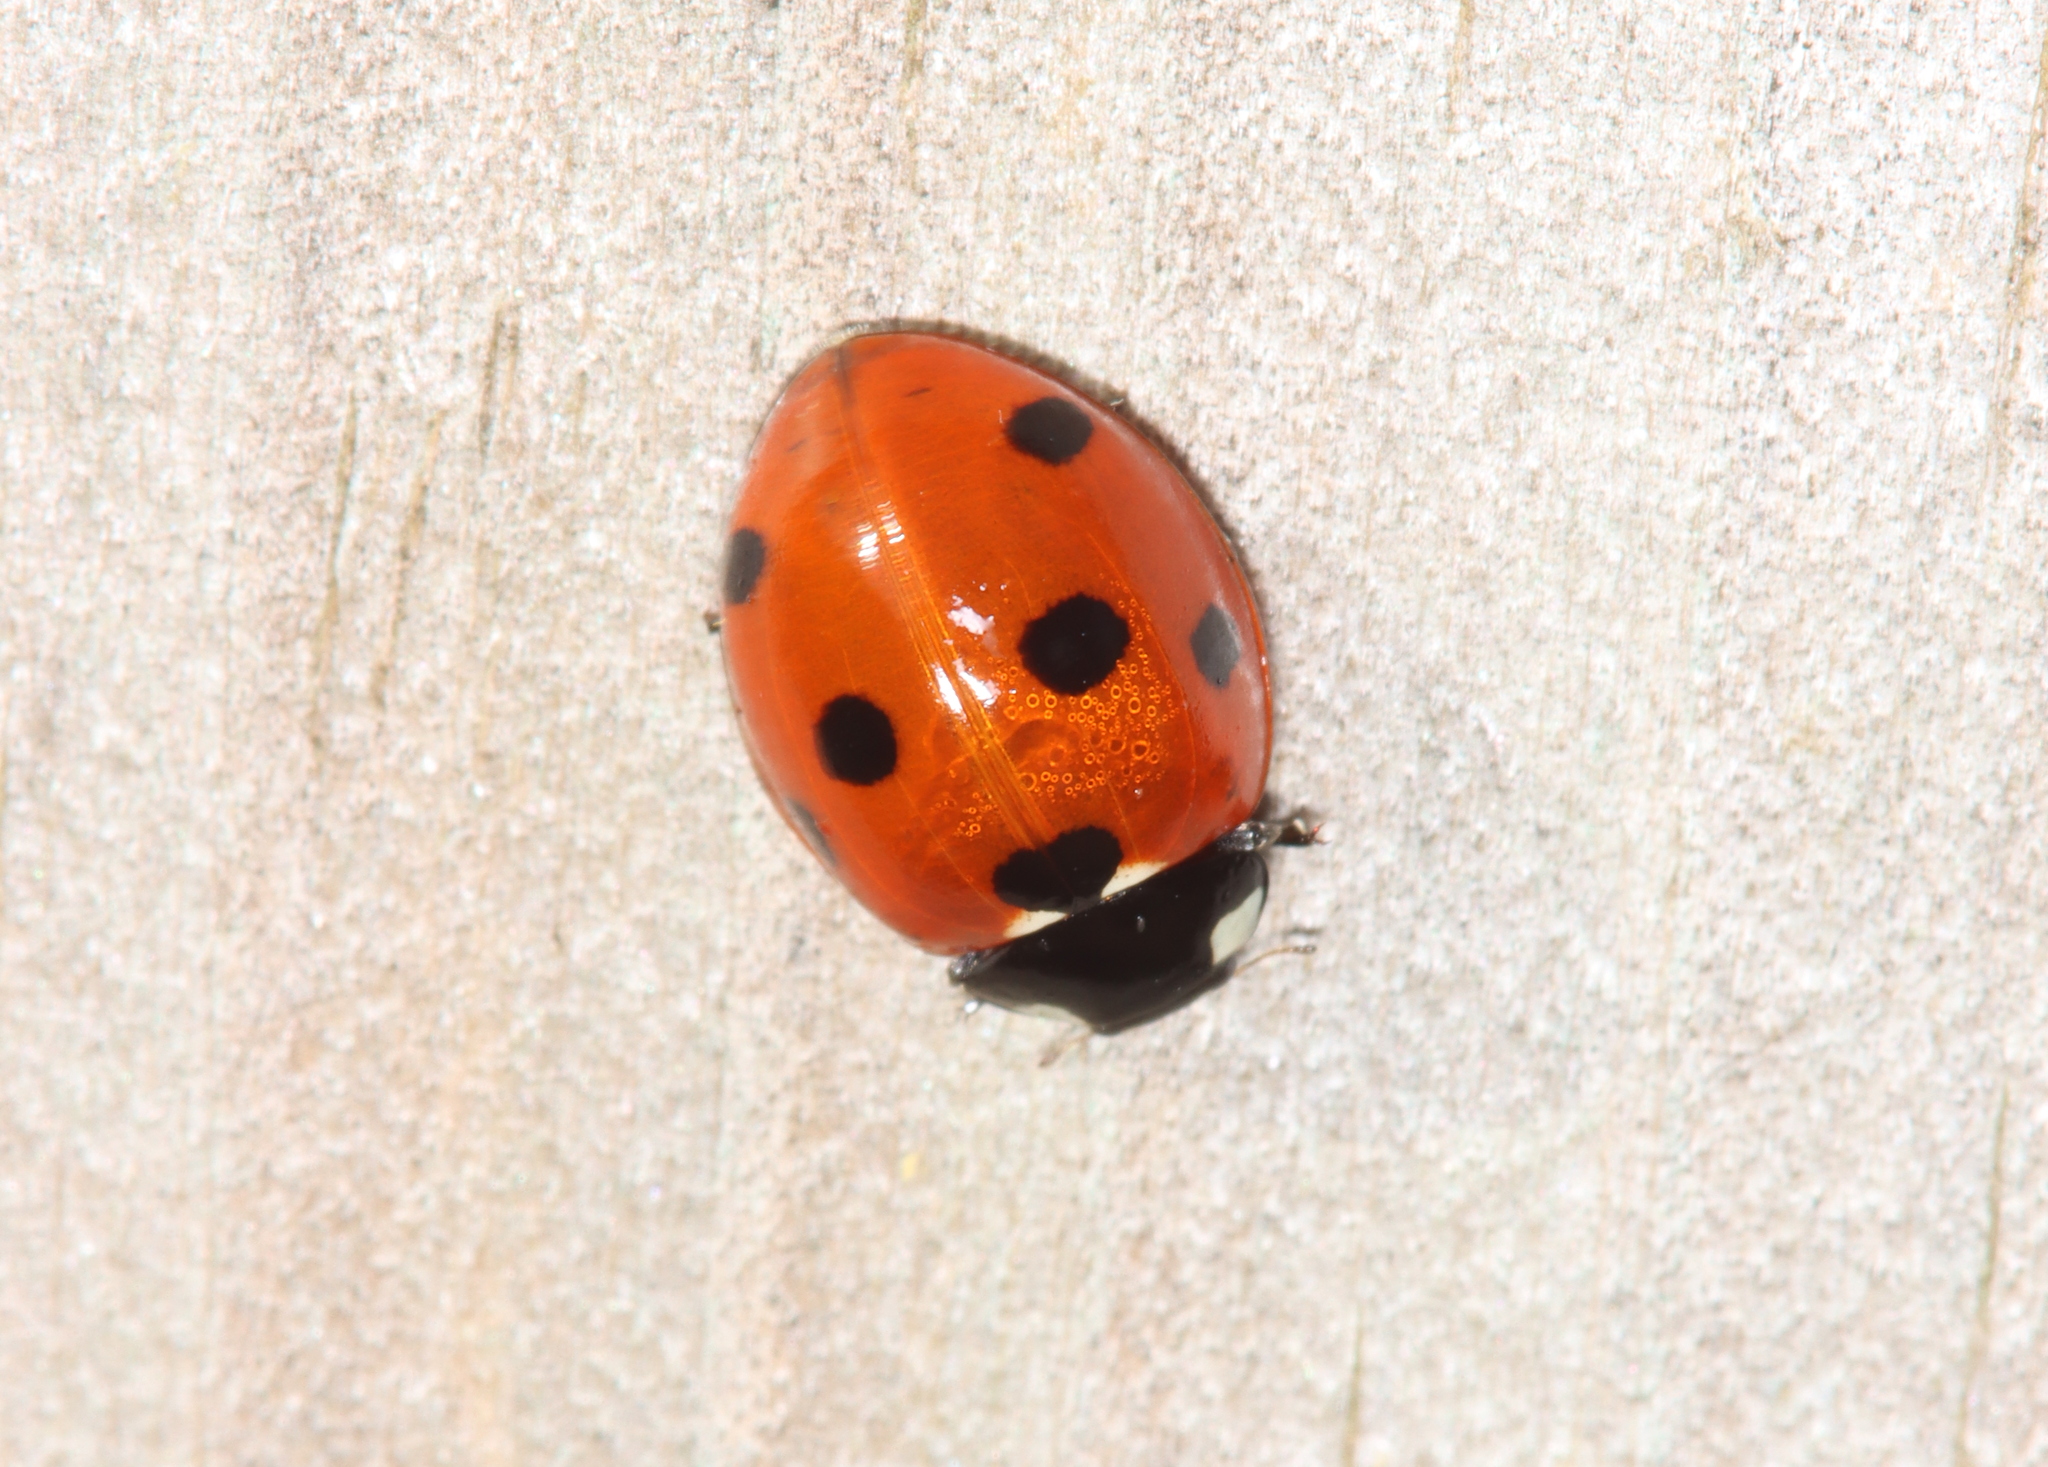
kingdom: Animalia
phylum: Arthropoda
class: Insecta
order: Coleoptera
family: Coccinellidae
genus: Coccinella
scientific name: Coccinella septempunctata
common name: Sevenspotted lady beetle
